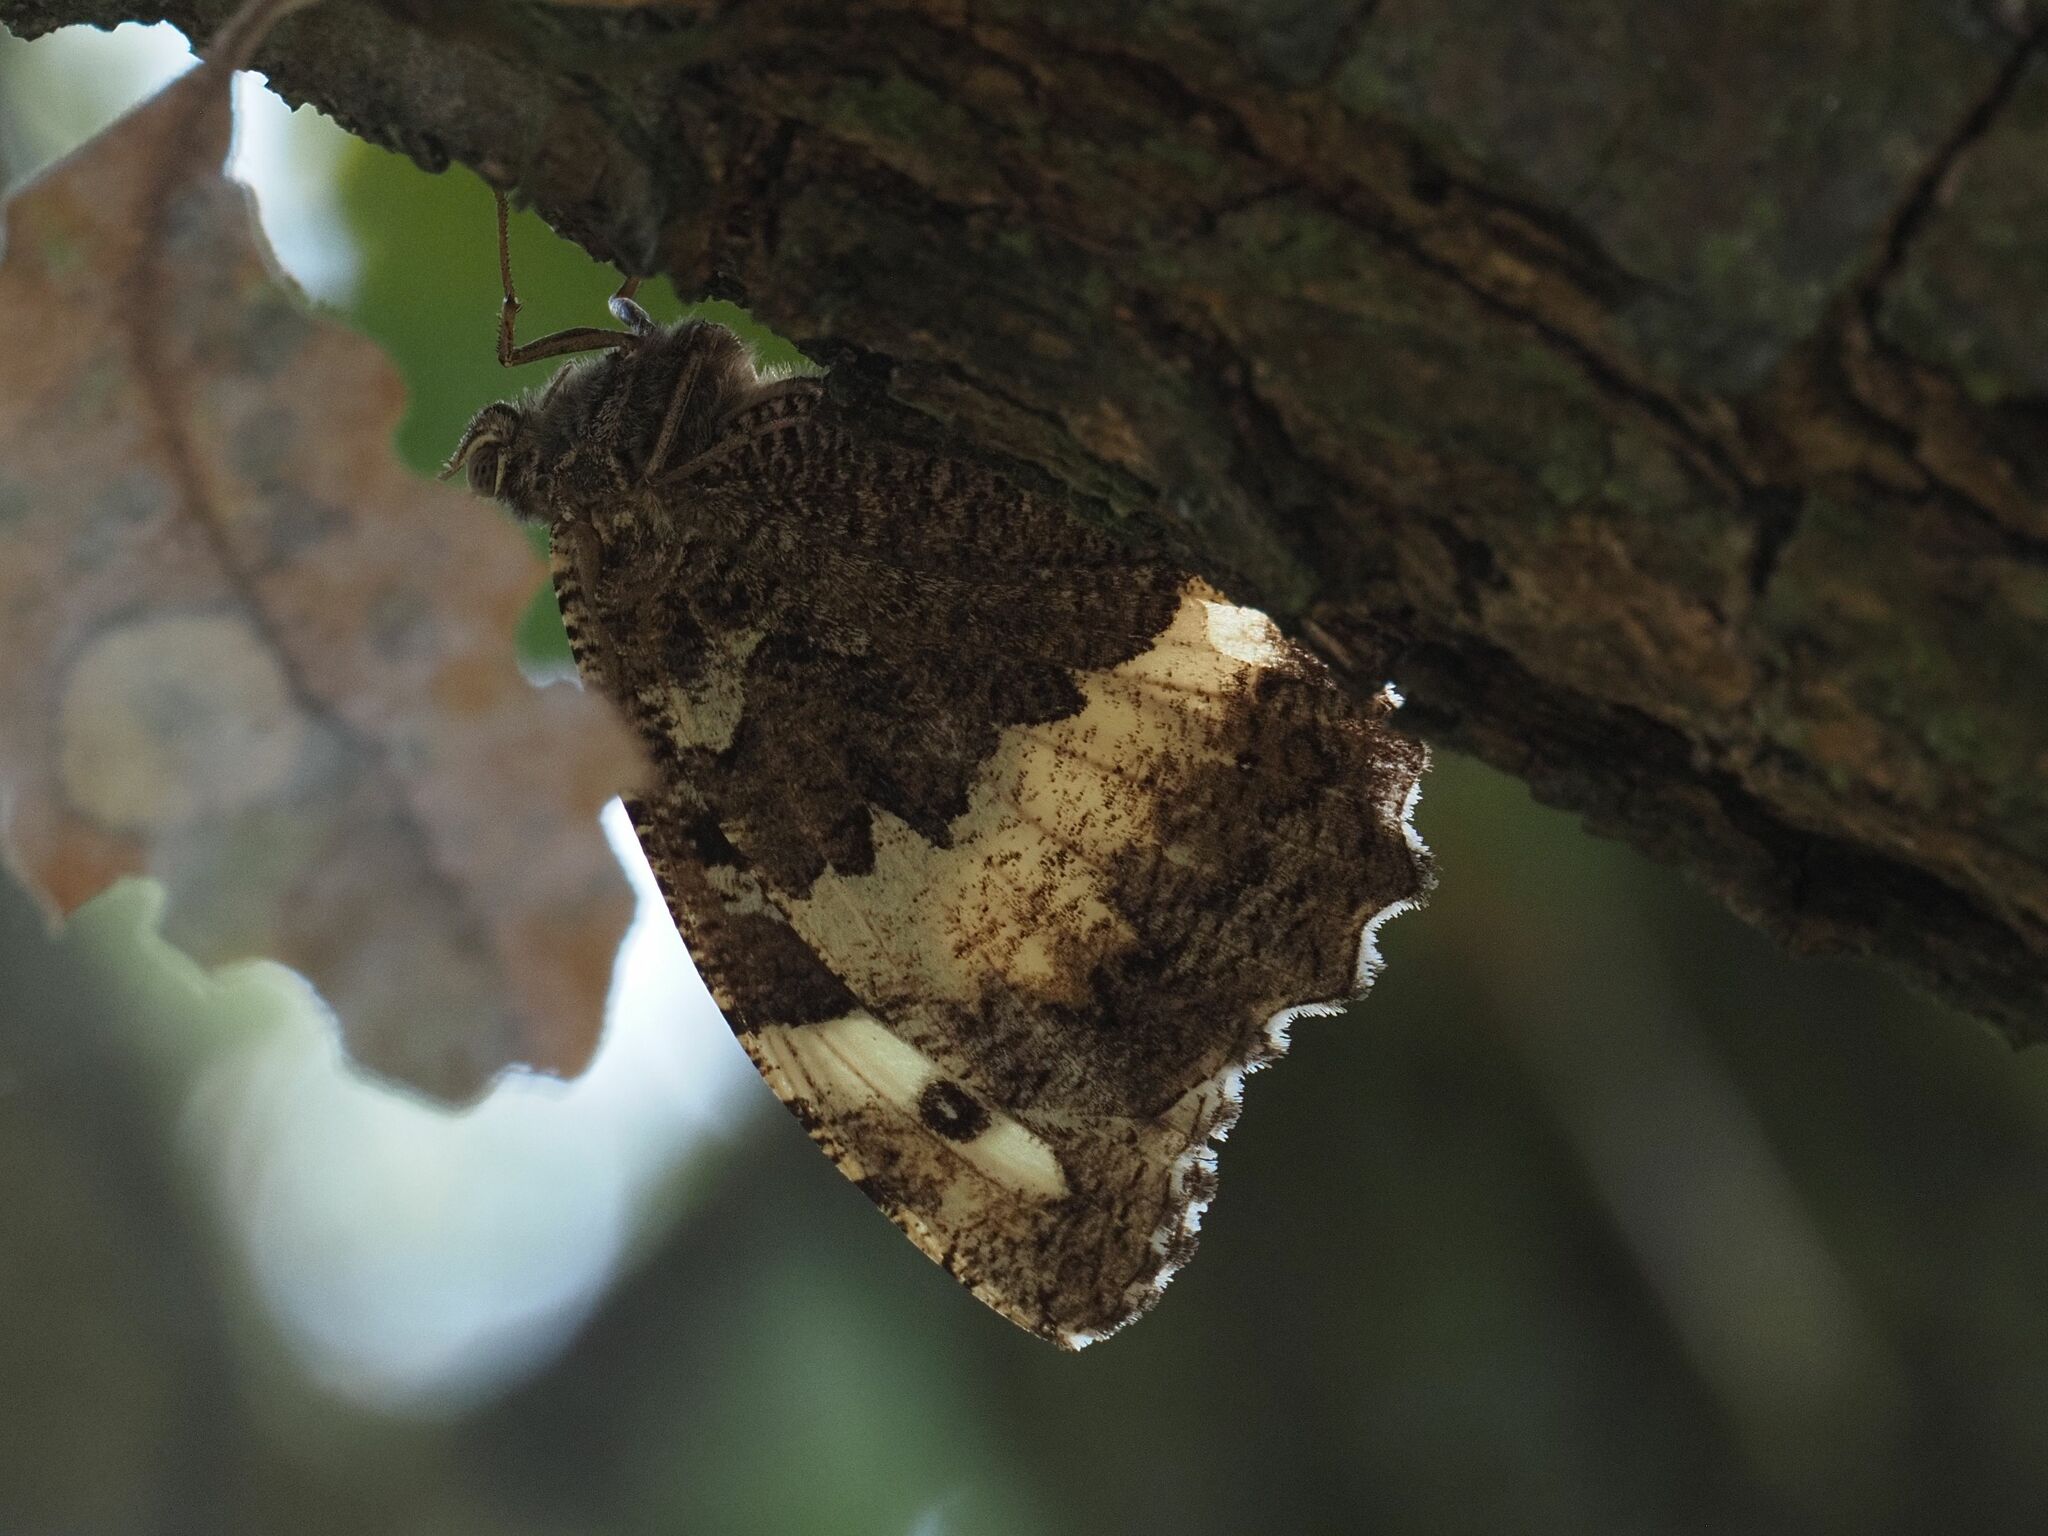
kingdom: Animalia
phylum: Arthropoda
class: Insecta
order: Lepidoptera
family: Lycaenidae
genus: Loweia
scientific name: Loweia tityrus
